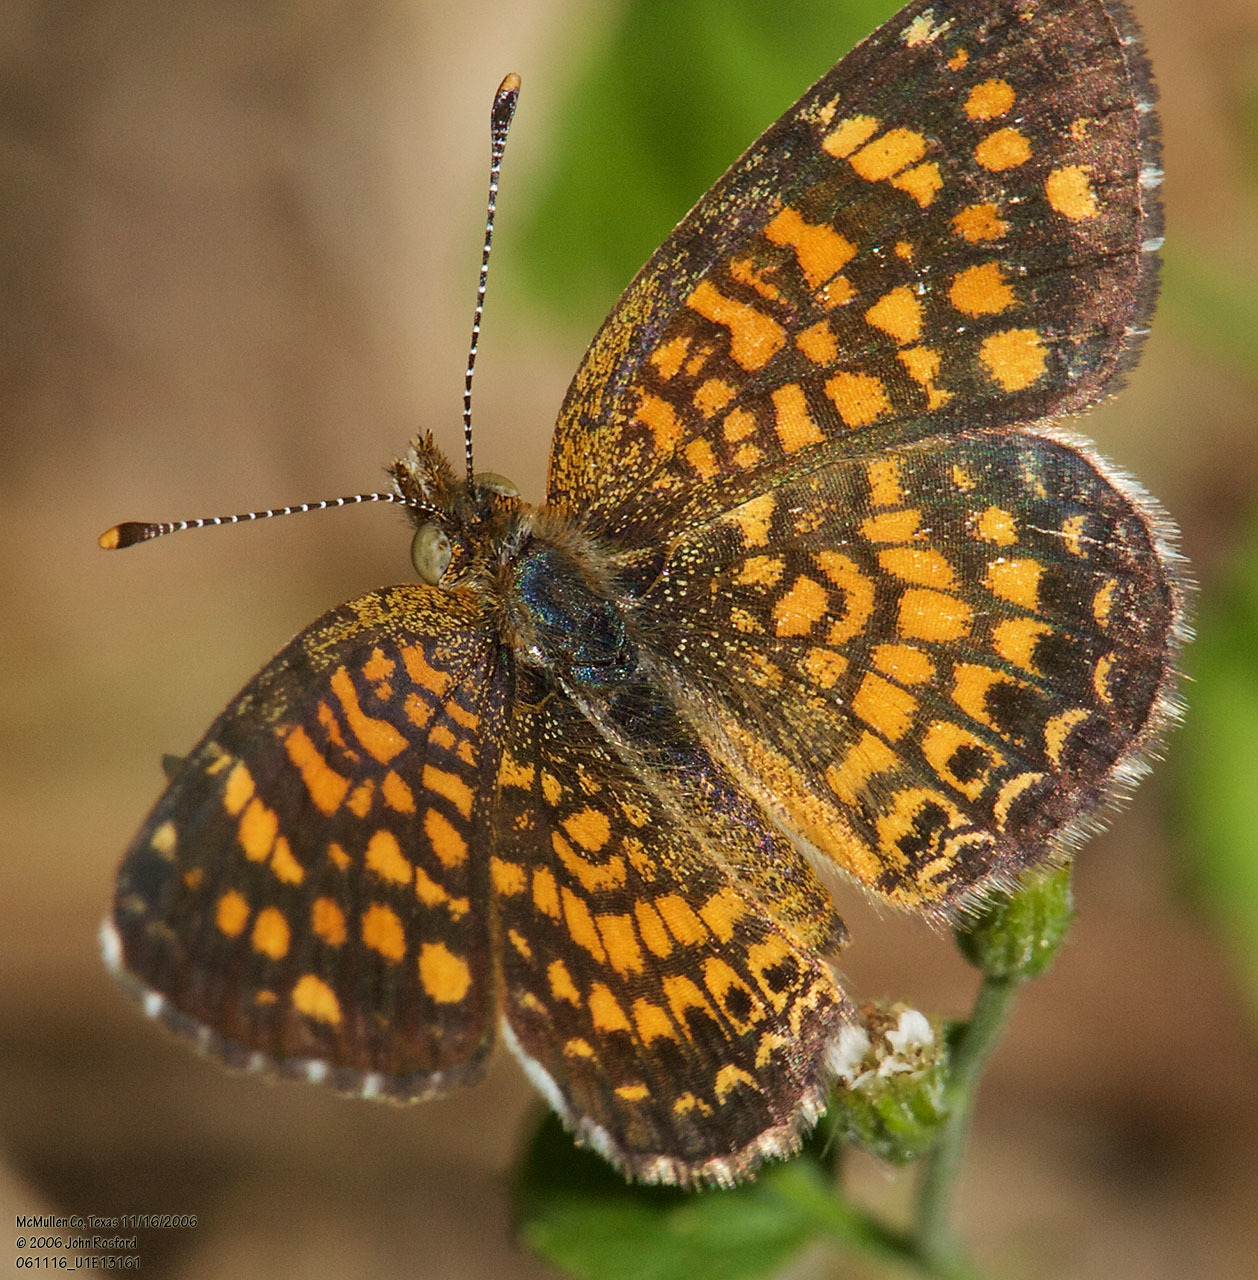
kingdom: Animalia
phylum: Arthropoda
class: Insecta
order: Lepidoptera
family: Nymphalidae
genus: Phyciodes
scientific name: Phyciodes vesta
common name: Vesta crescent
